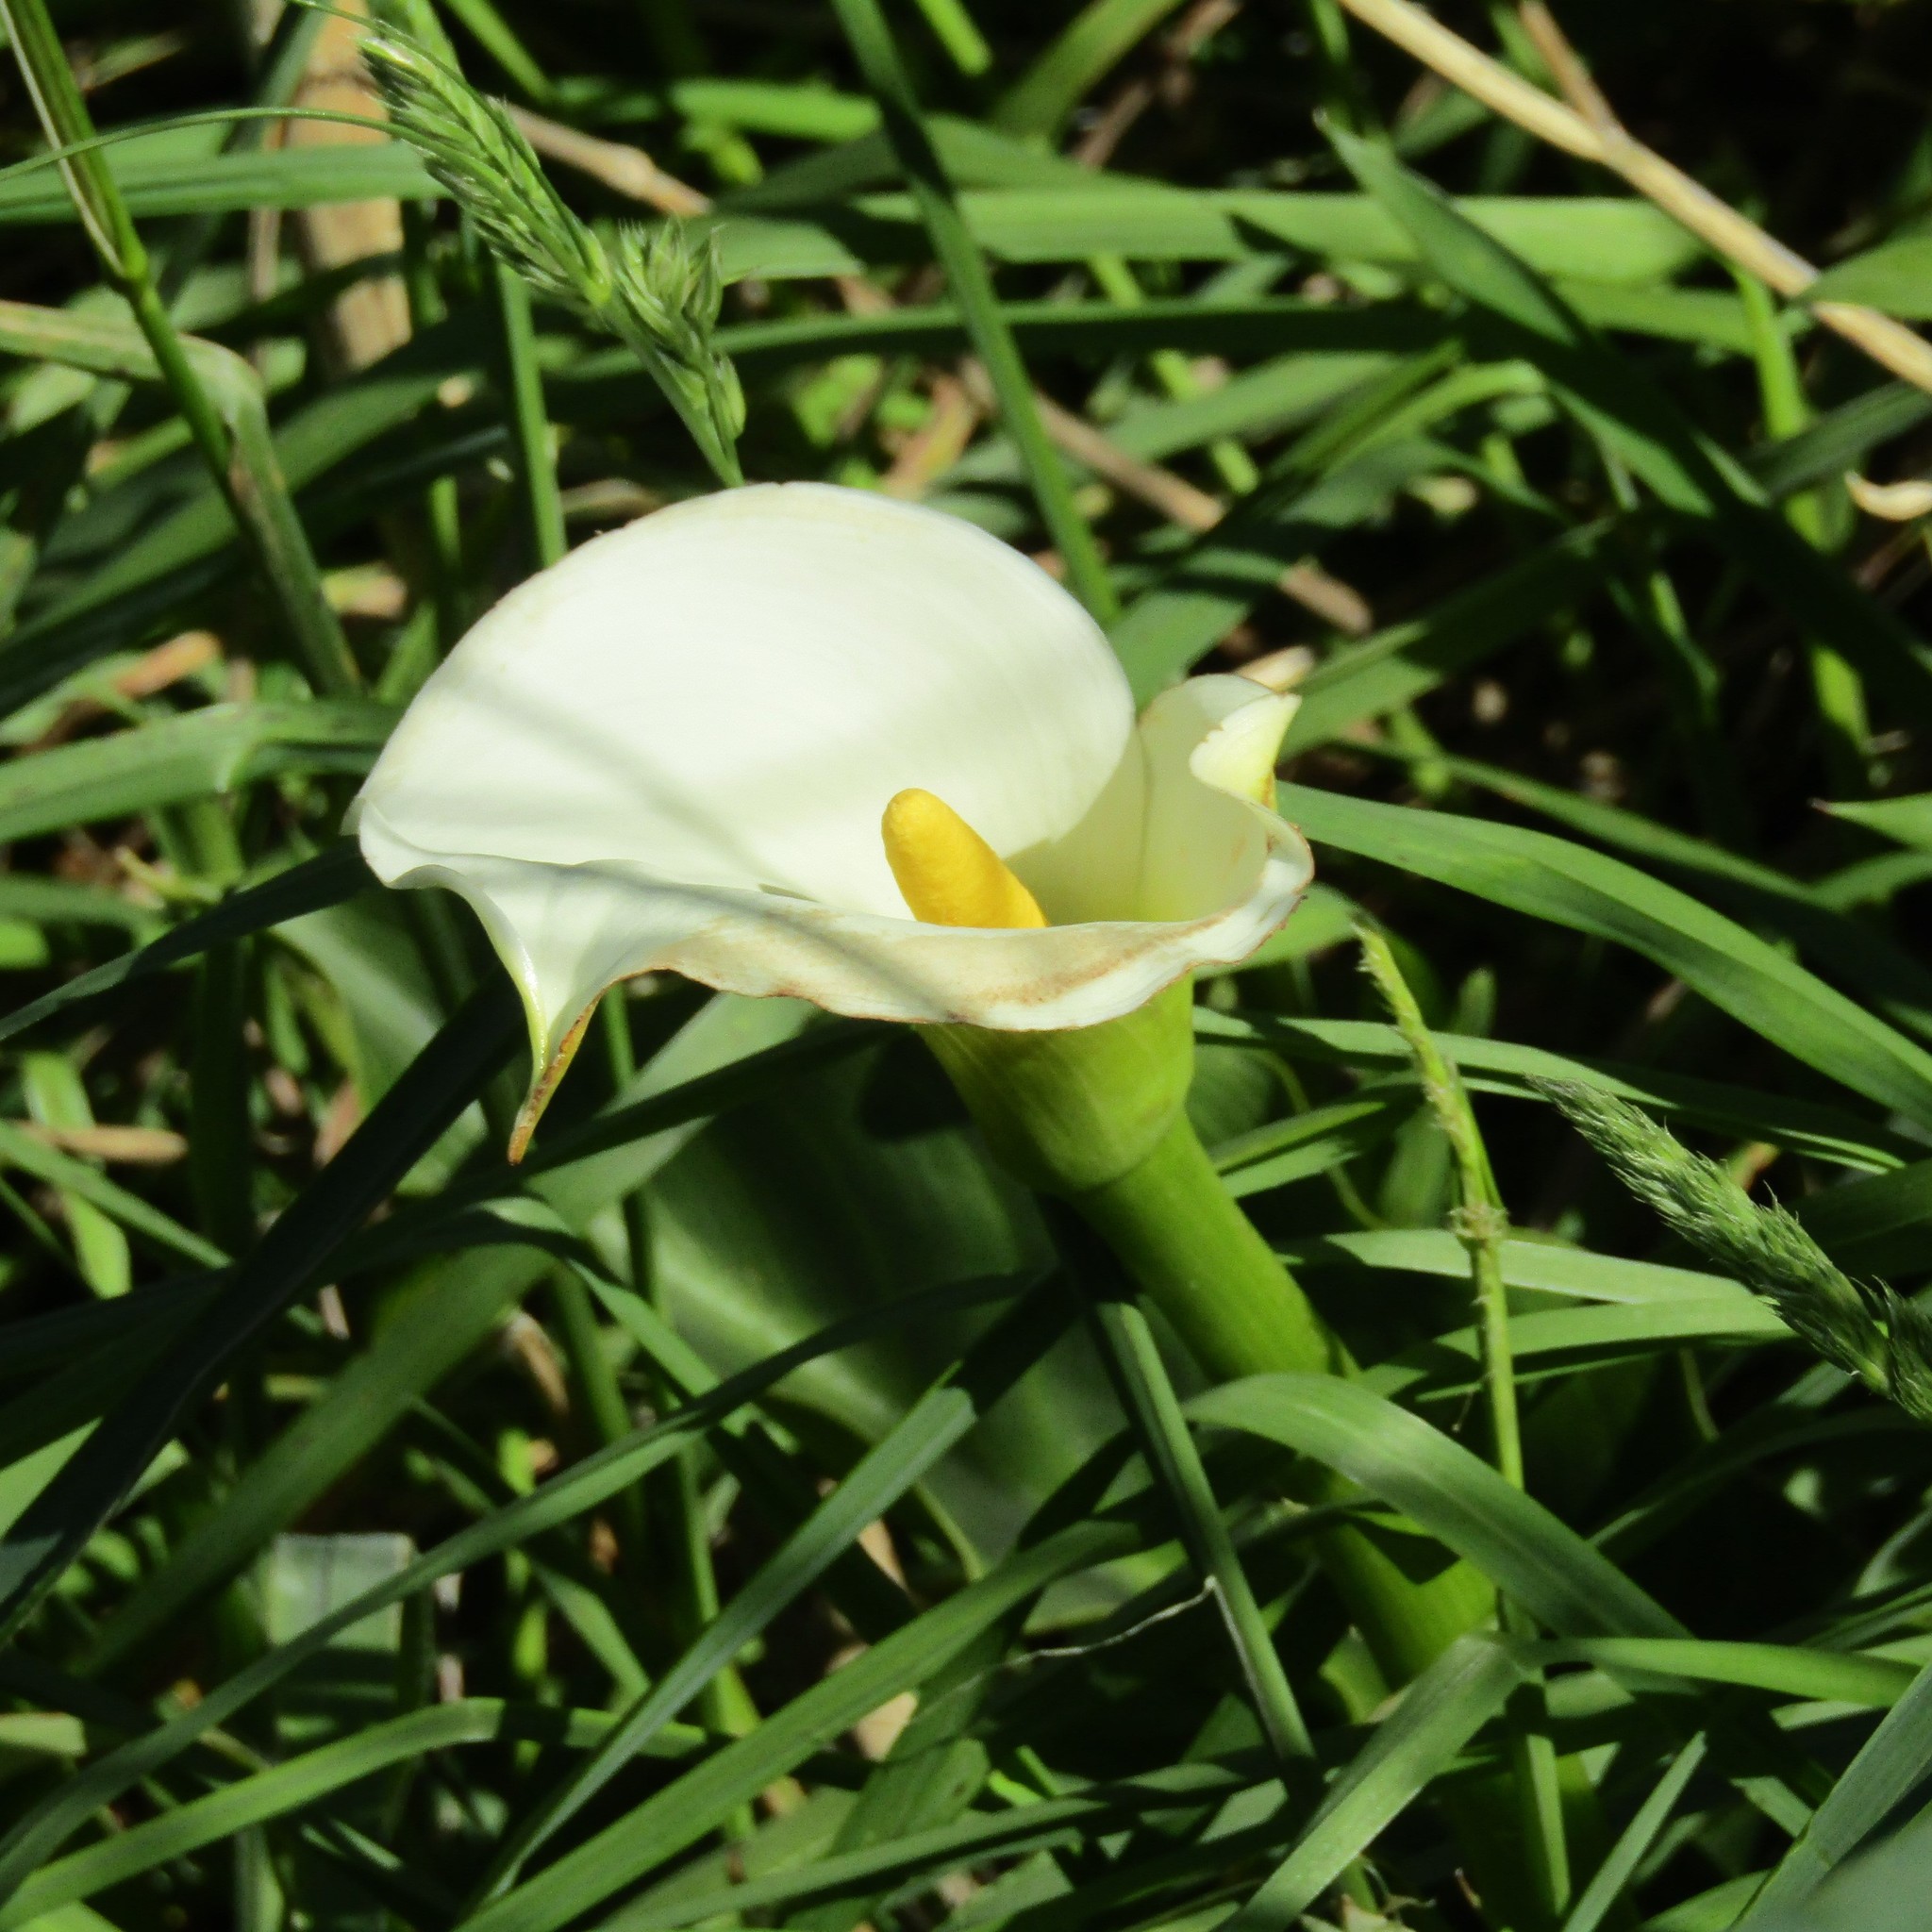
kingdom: Plantae
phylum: Tracheophyta
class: Liliopsida
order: Alismatales
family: Araceae
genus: Zantedeschia
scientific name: Zantedeschia aethiopica
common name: Altar-lily
